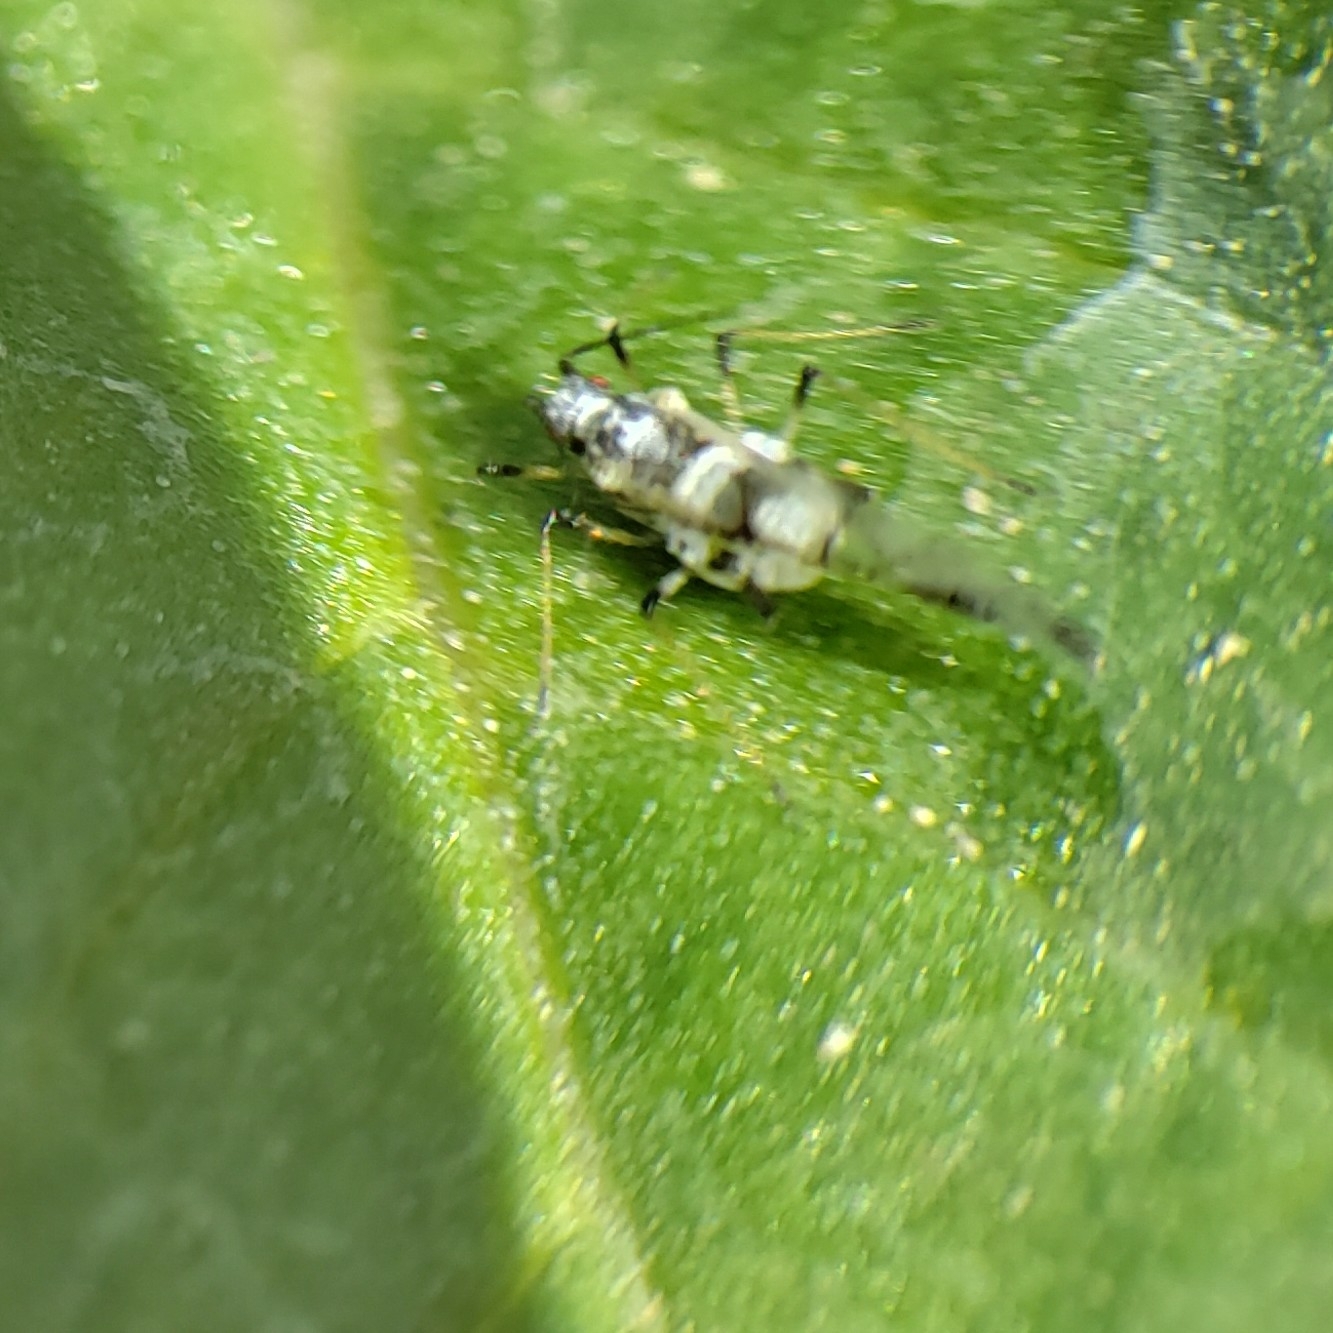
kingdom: Animalia
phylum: Arthropoda
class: Insecta
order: Hemiptera
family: Aphididae
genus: Eucarazzia
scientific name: Eucarazzia elegans
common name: Mint aphid
